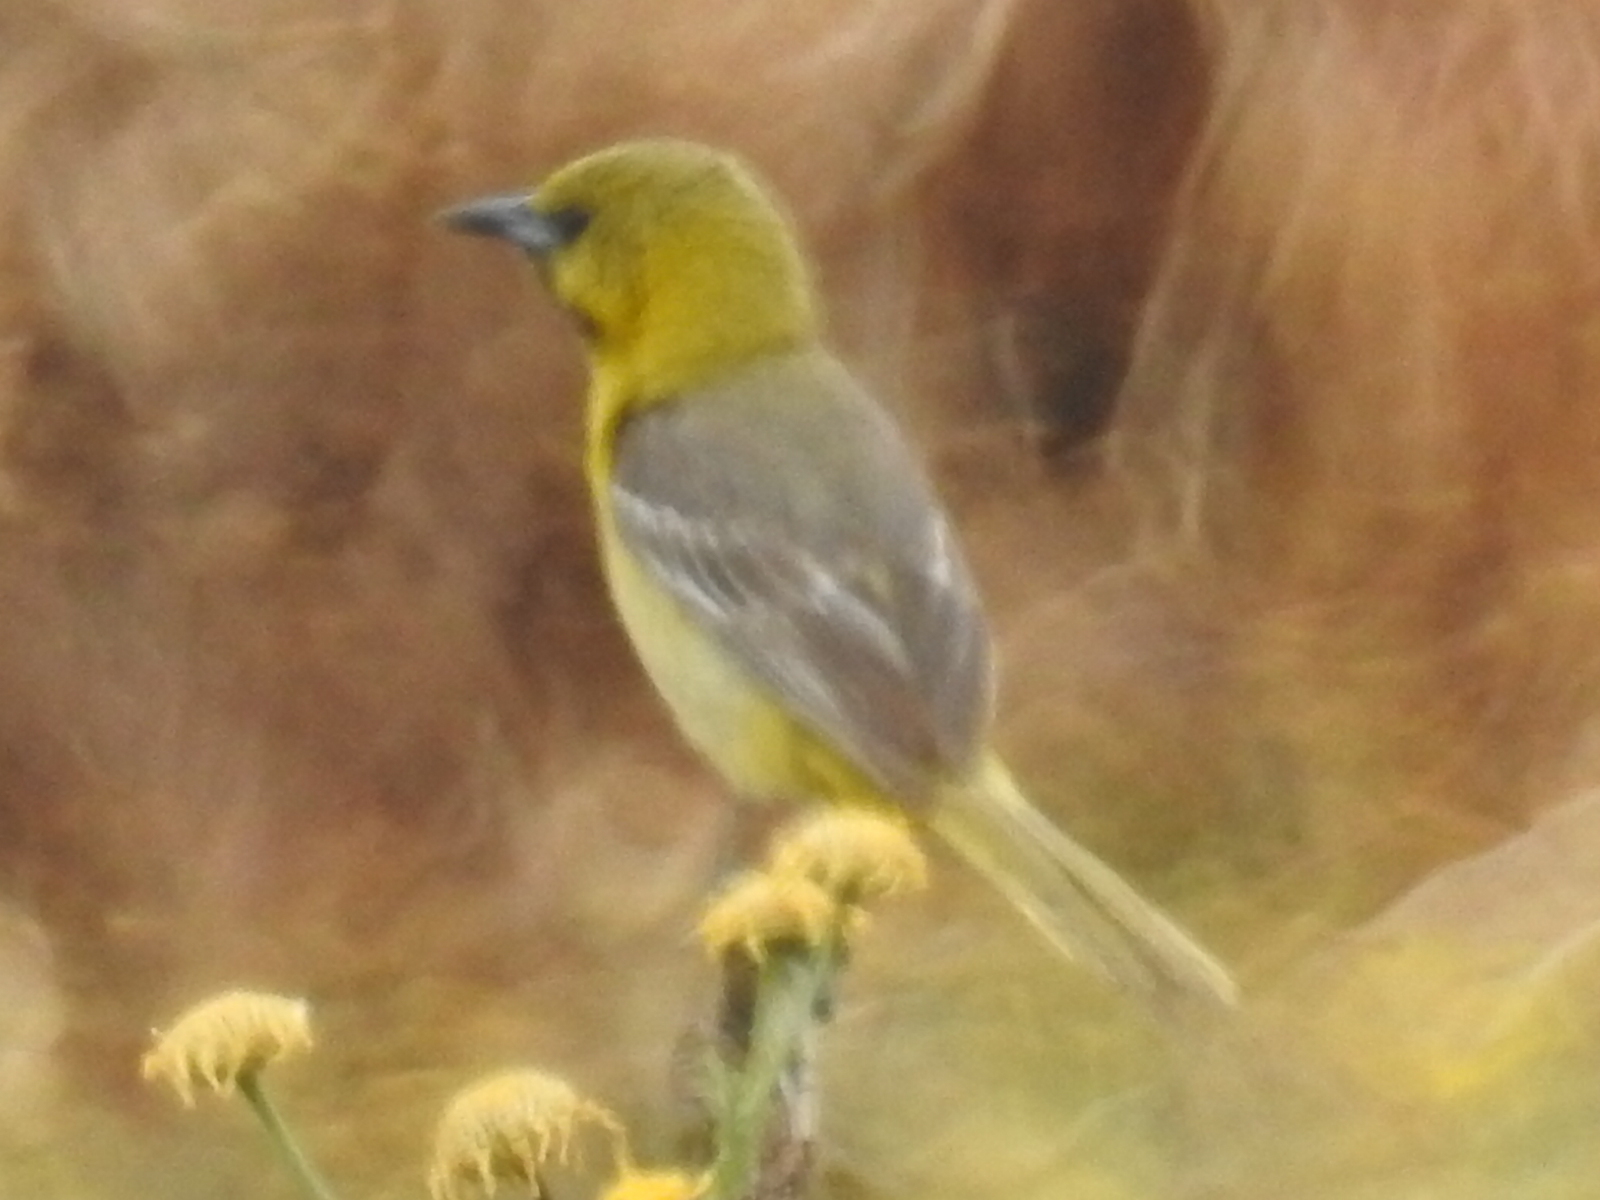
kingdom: Animalia
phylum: Chordata
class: Aves
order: Passeriformes
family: Icteridae
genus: Icterus
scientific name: Icterus cucullatus
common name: Hooded oriole
